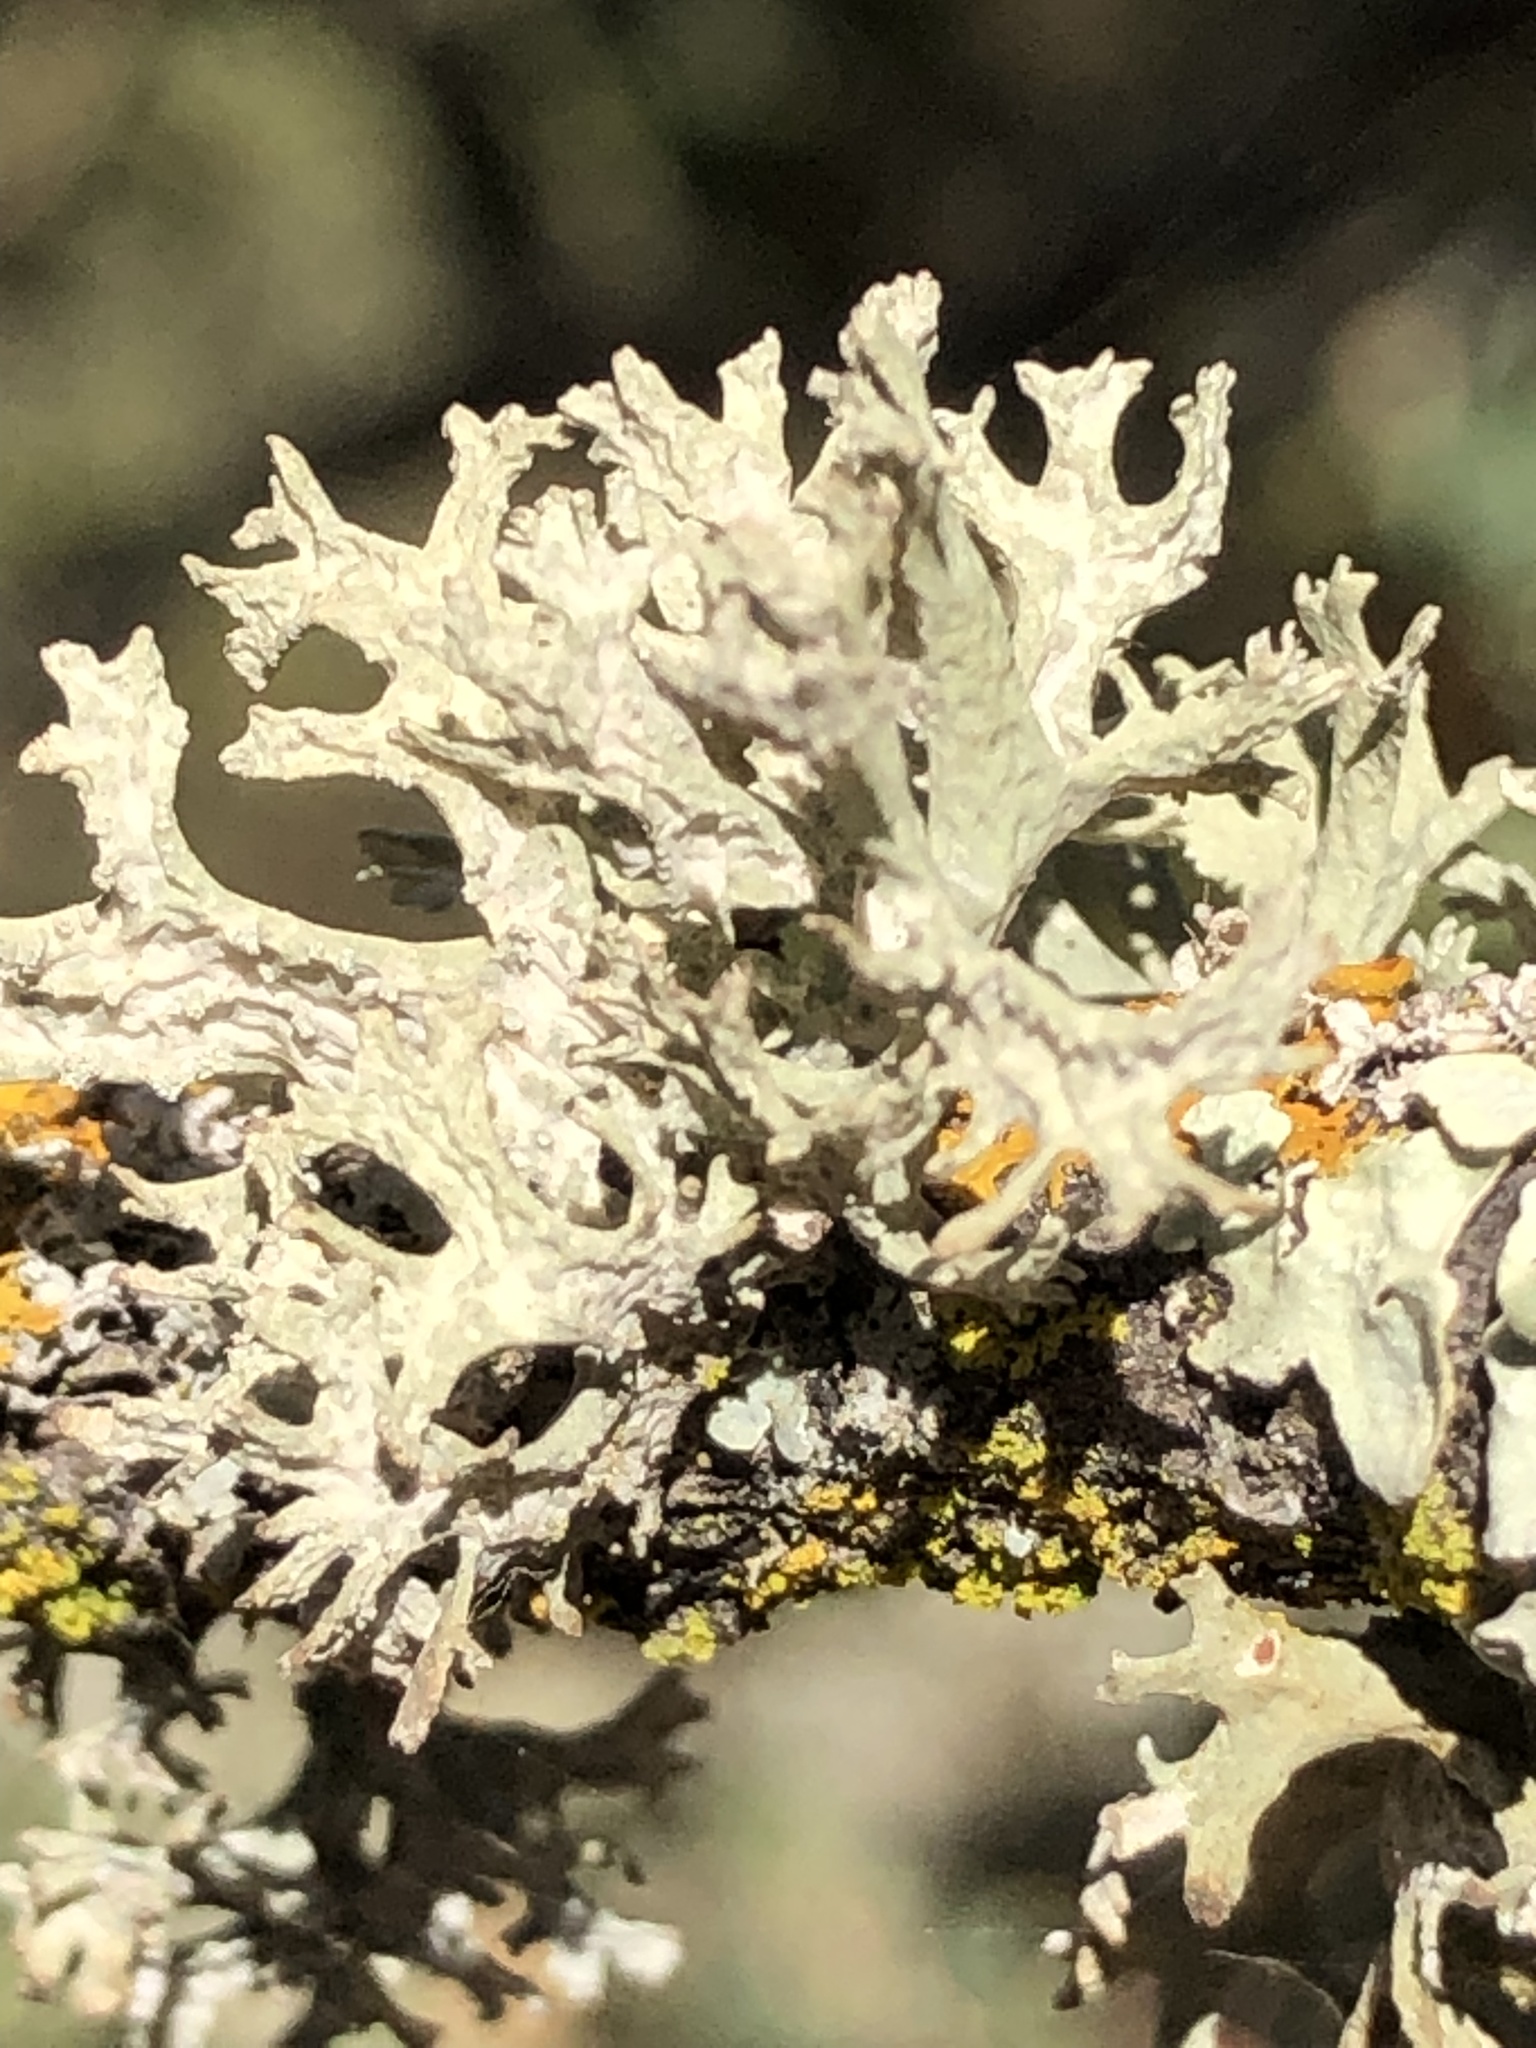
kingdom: Fungi
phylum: Ascomycota
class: Lecanoromycetes
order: Lecanorales
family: Parmeliaceae
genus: Evernia
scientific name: Evernia prunastri
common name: Oak moss
